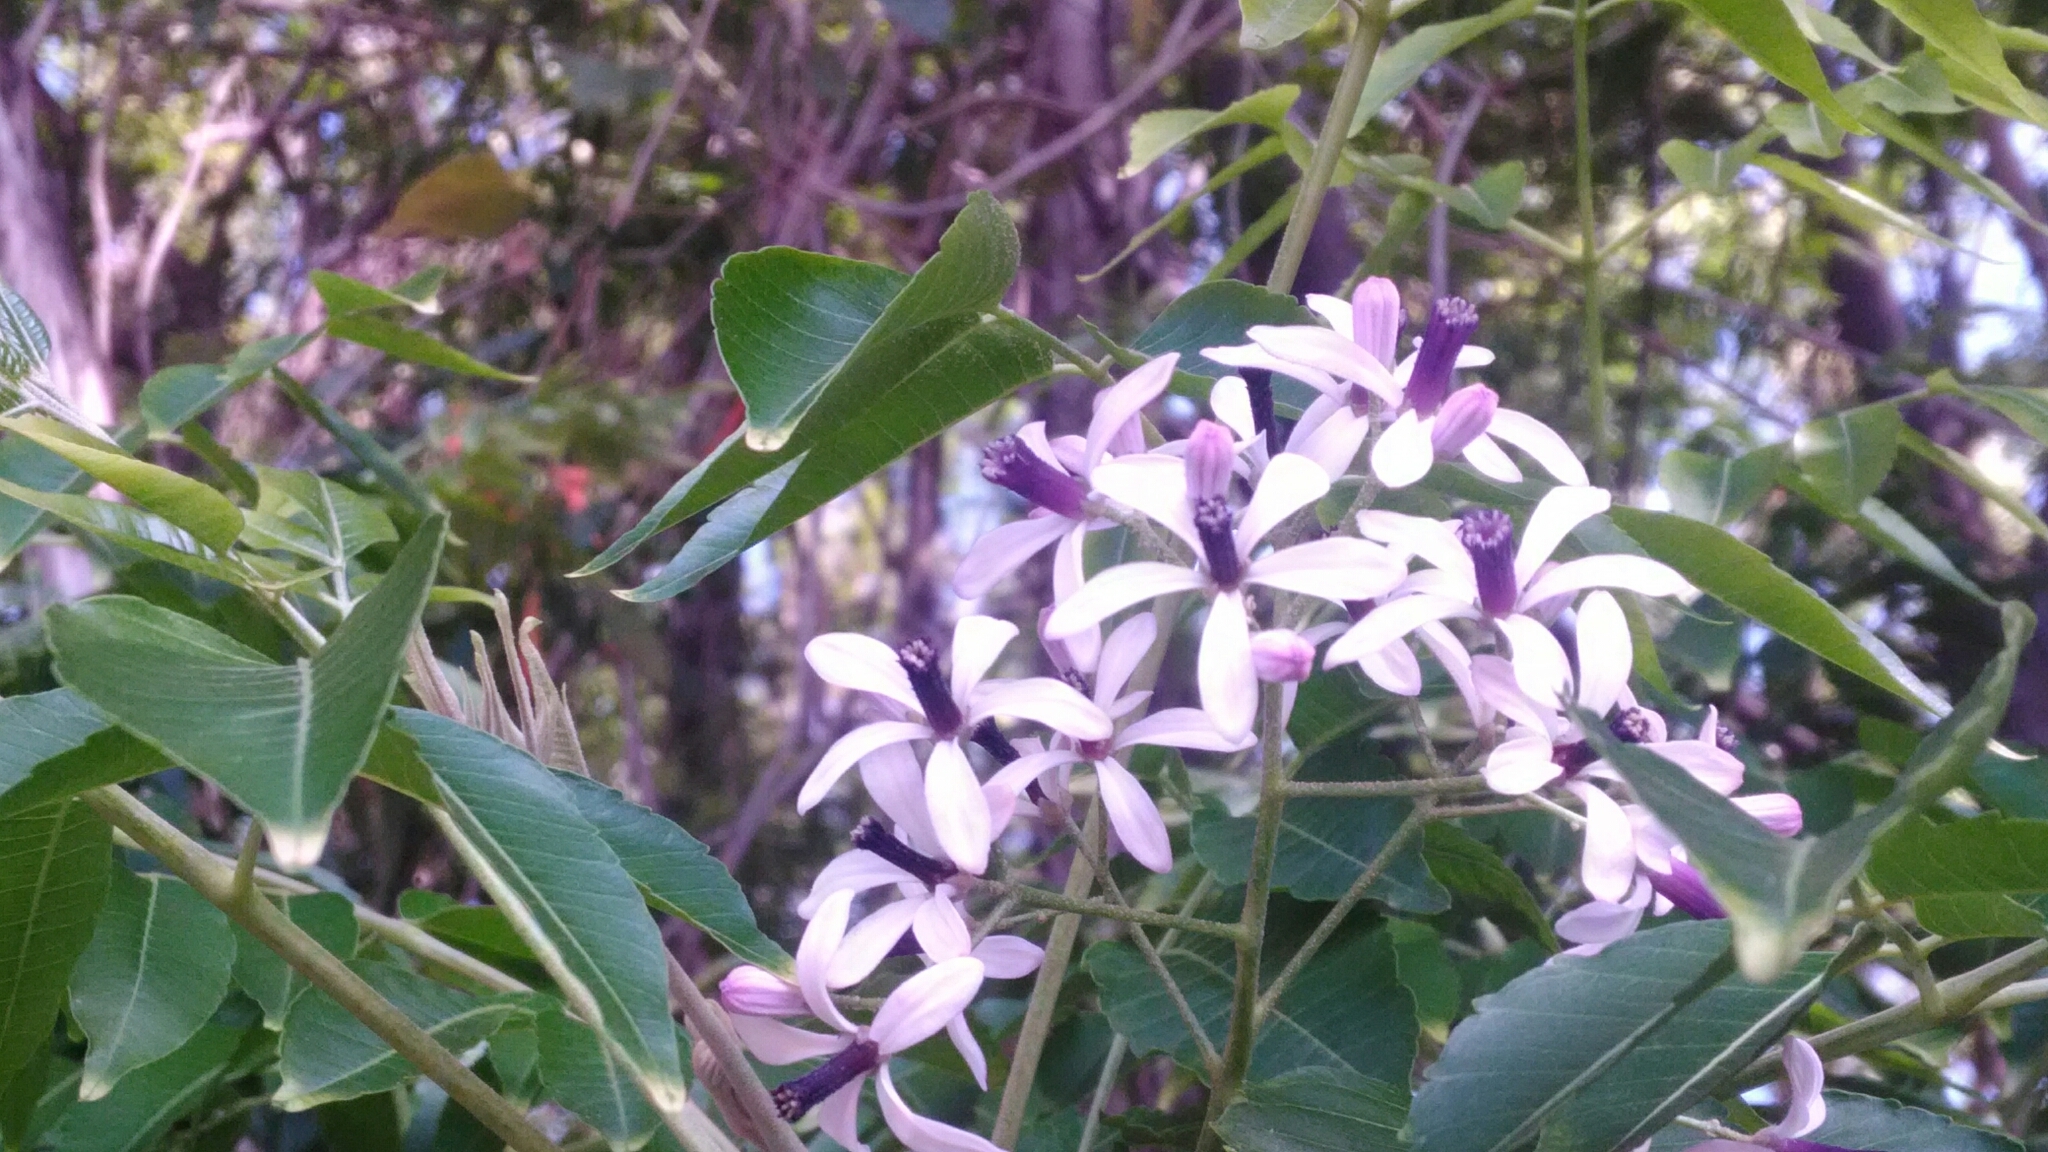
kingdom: Plantae
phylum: Tracheophyta
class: Magnoliopsida
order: Sapindales
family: Meliaceae
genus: Melia
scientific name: Melia azedarach
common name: Chinaberrytree
